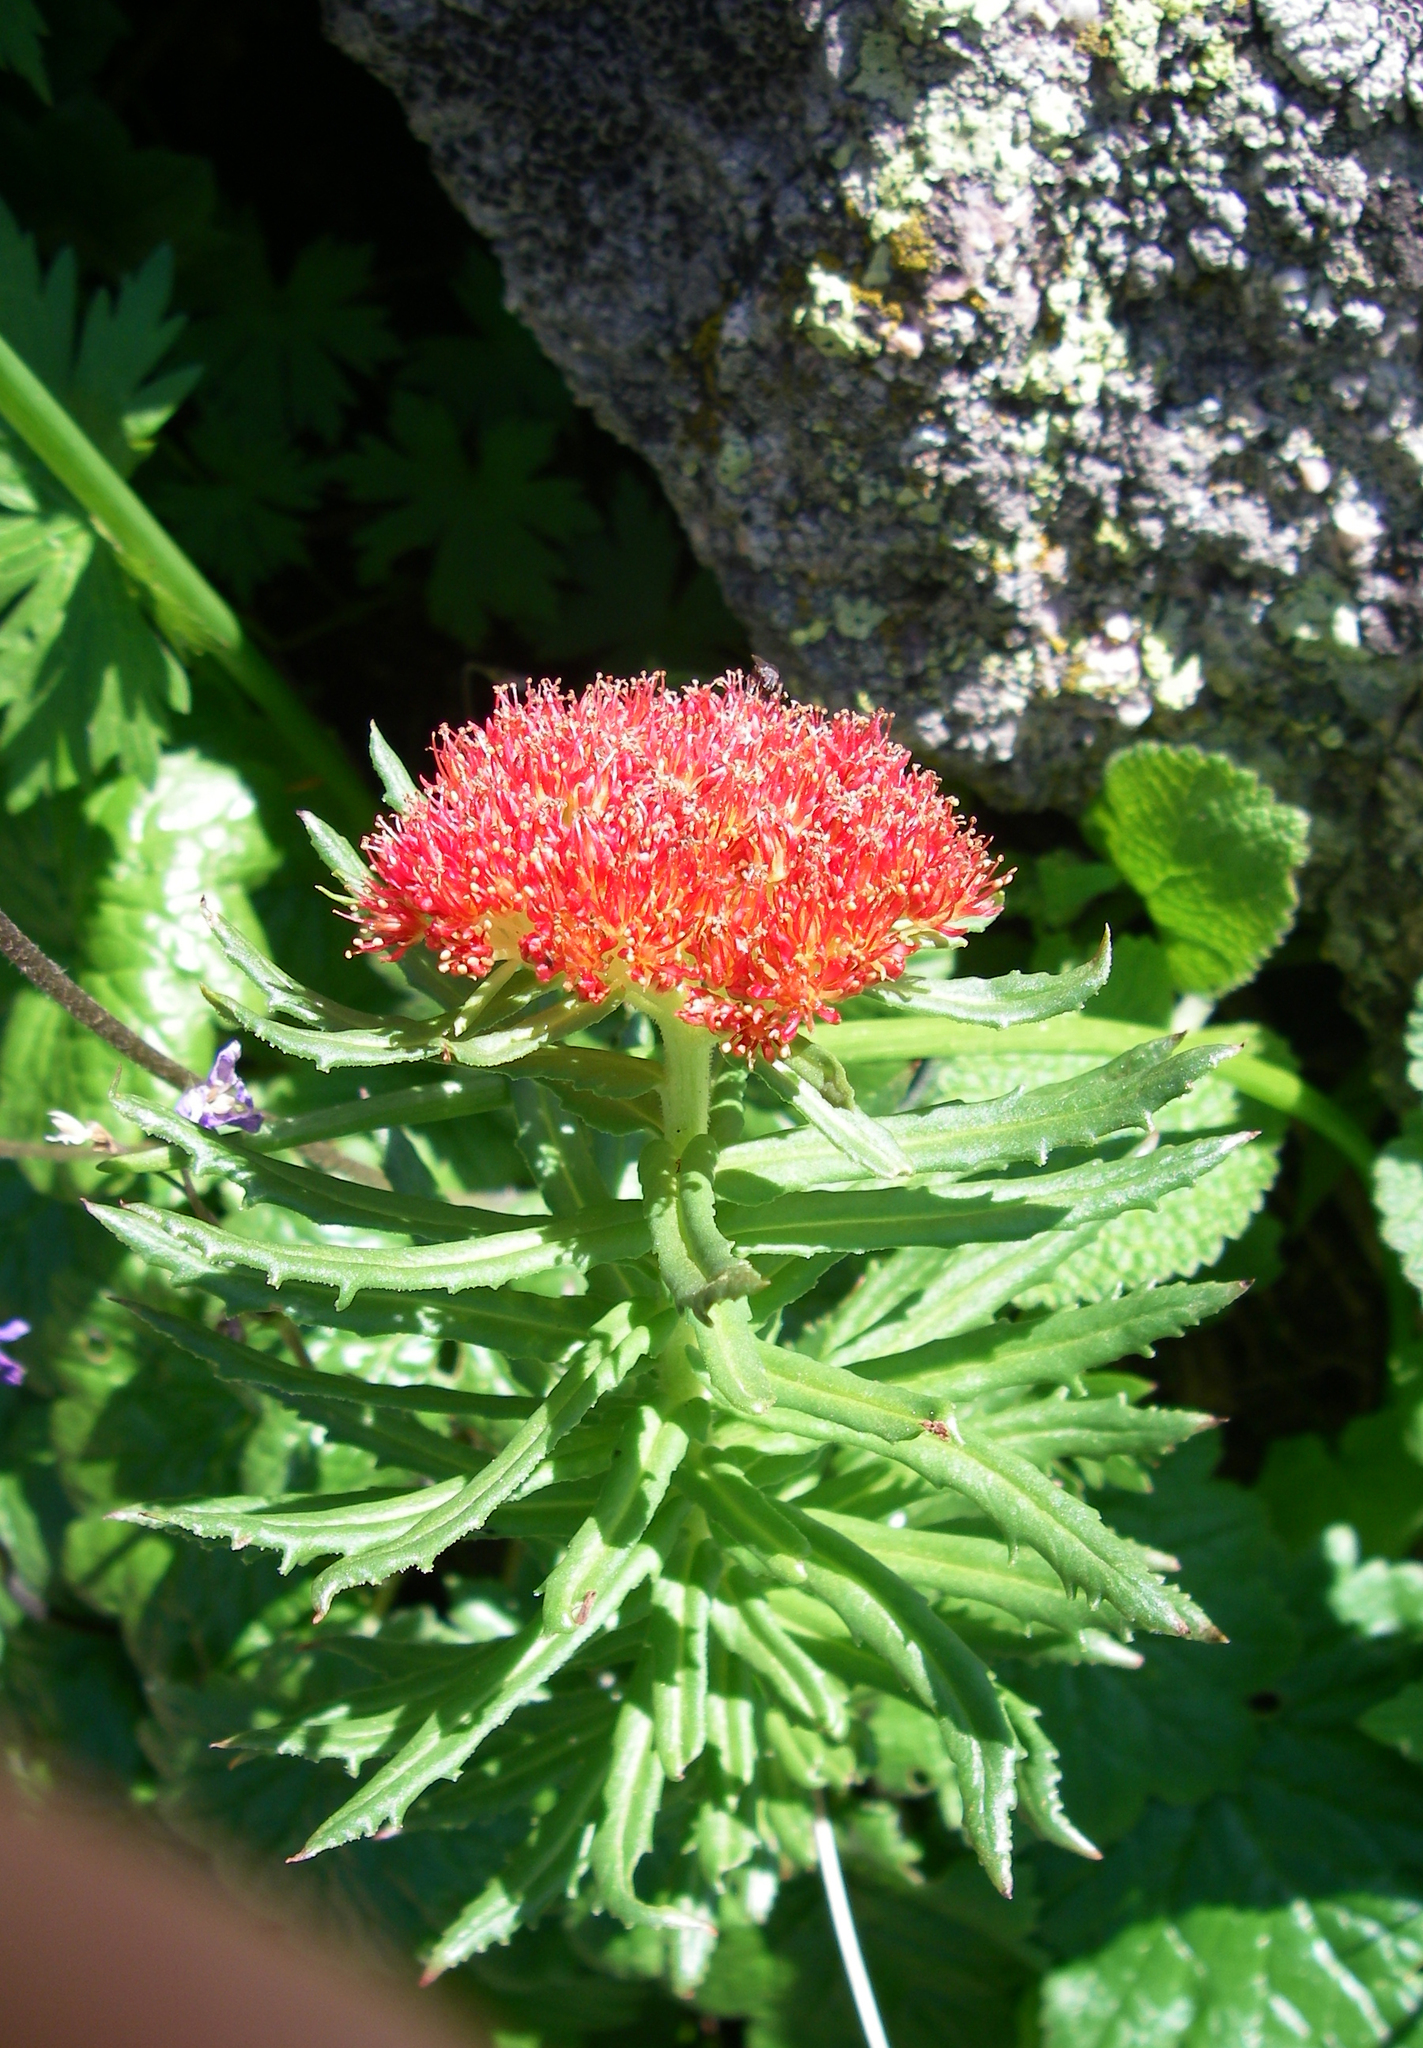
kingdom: Plantae
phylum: Tracheophyta
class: Magnoliopsida
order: Saxifragales
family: Crassulaceae
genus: Rhodiola
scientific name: Rhodiola kirilowii
